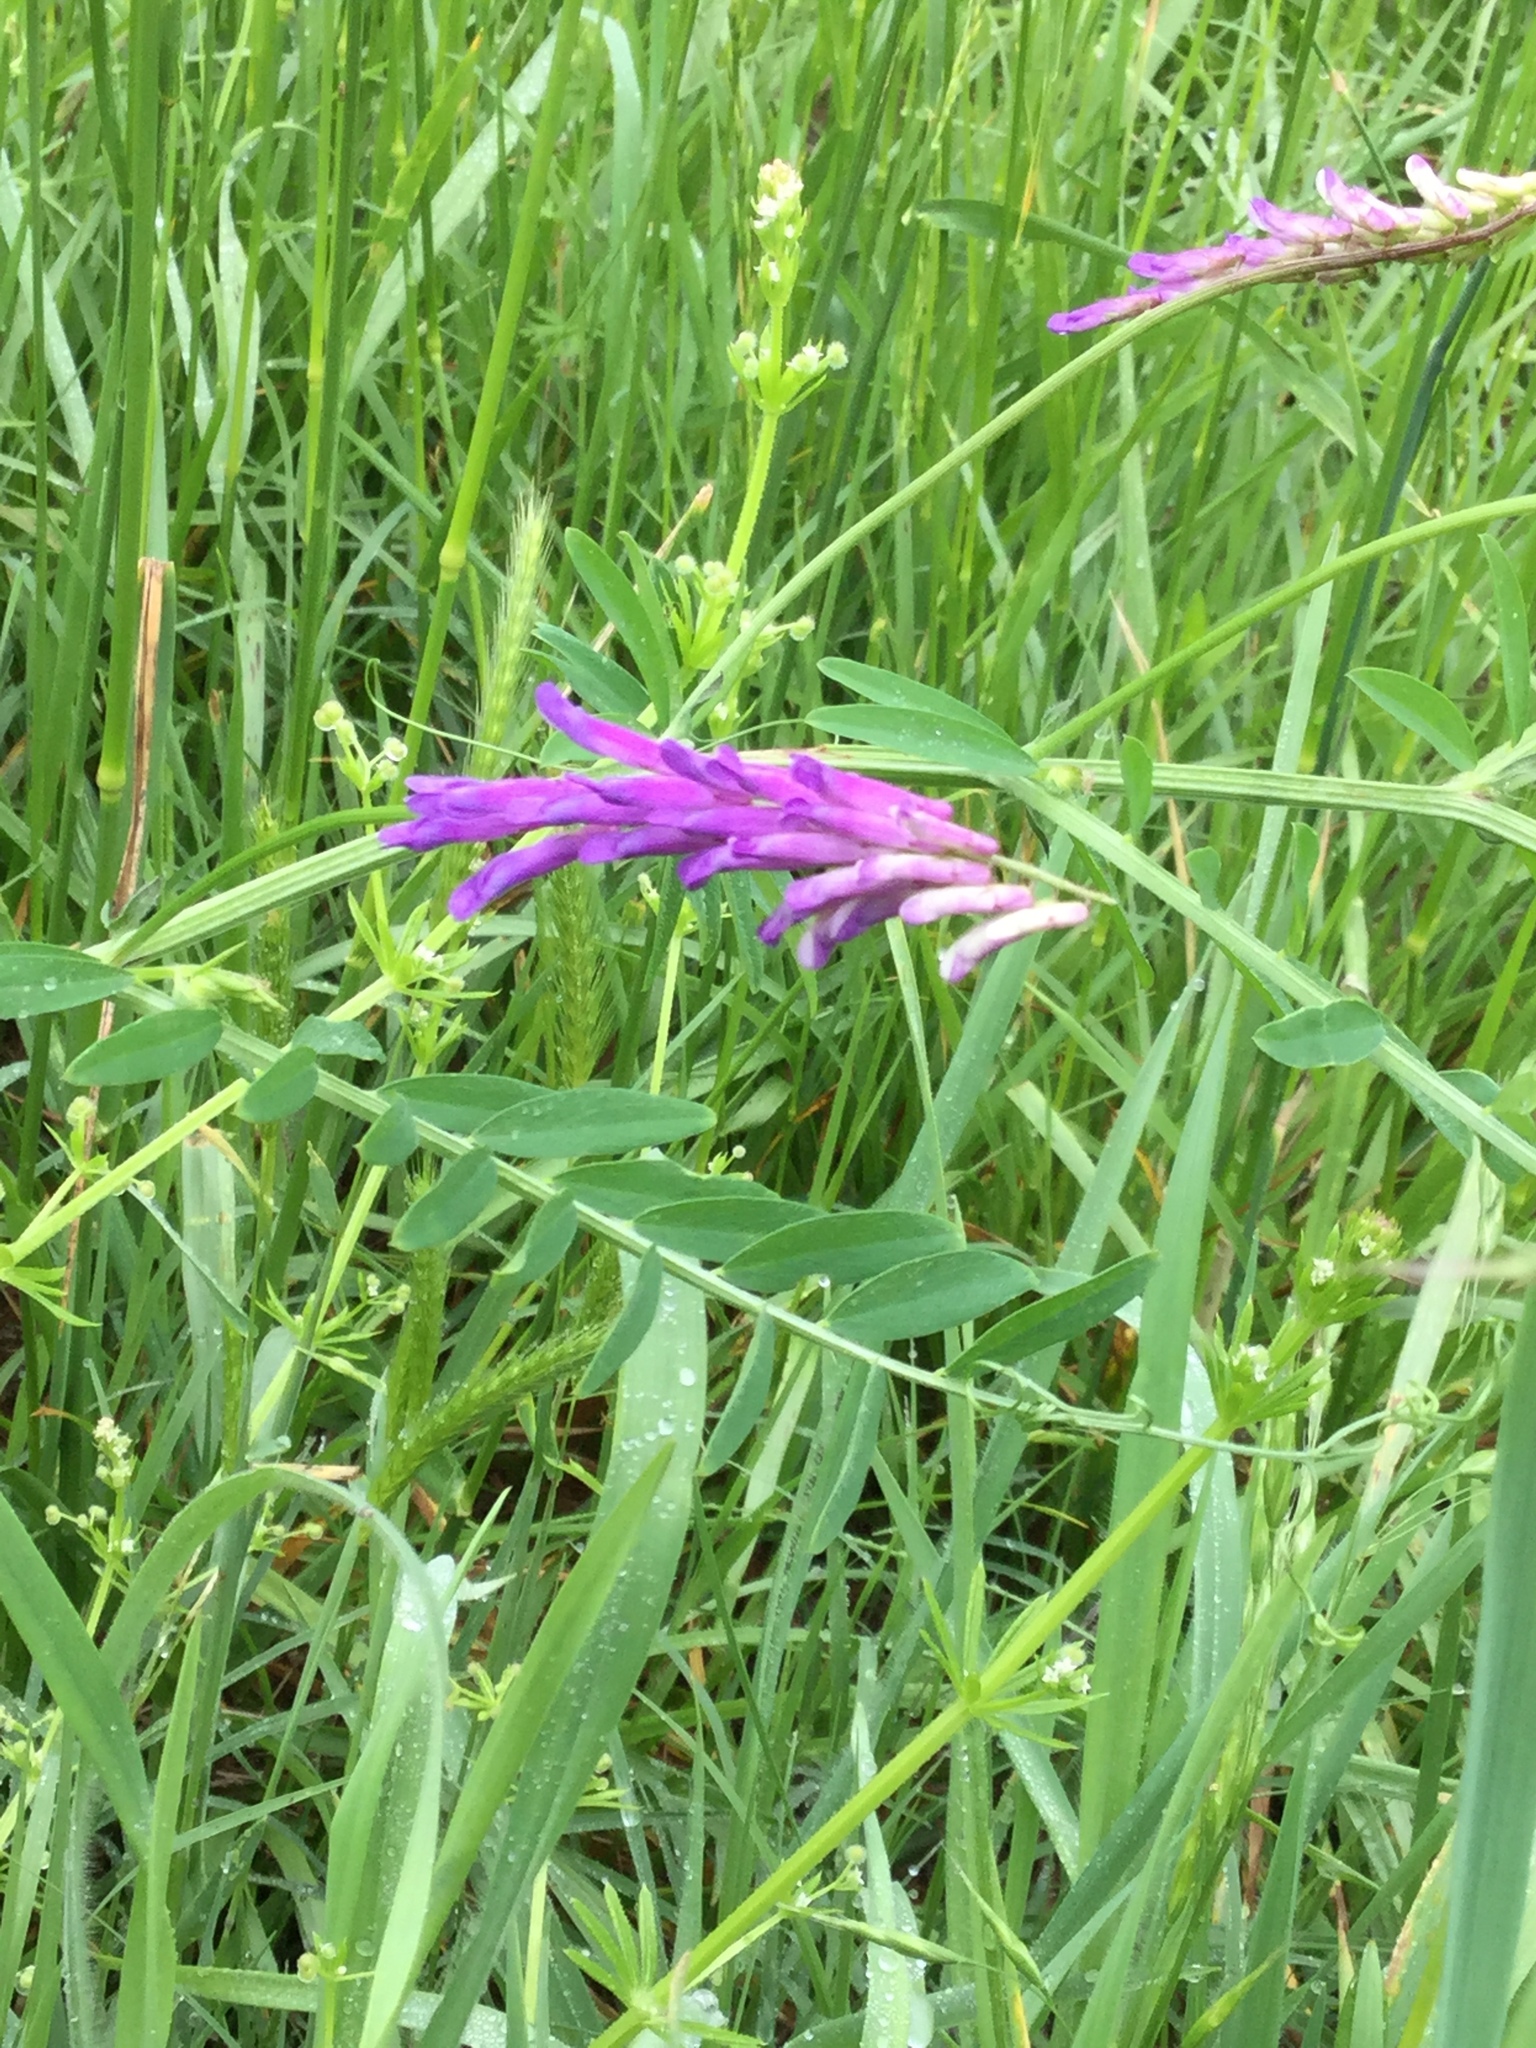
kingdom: Plantae
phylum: Tracheophyta
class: Magnoliopsida
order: Fabales
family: Fabaceae
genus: Vicia
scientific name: Vicia villosa
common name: Fodder vetch
